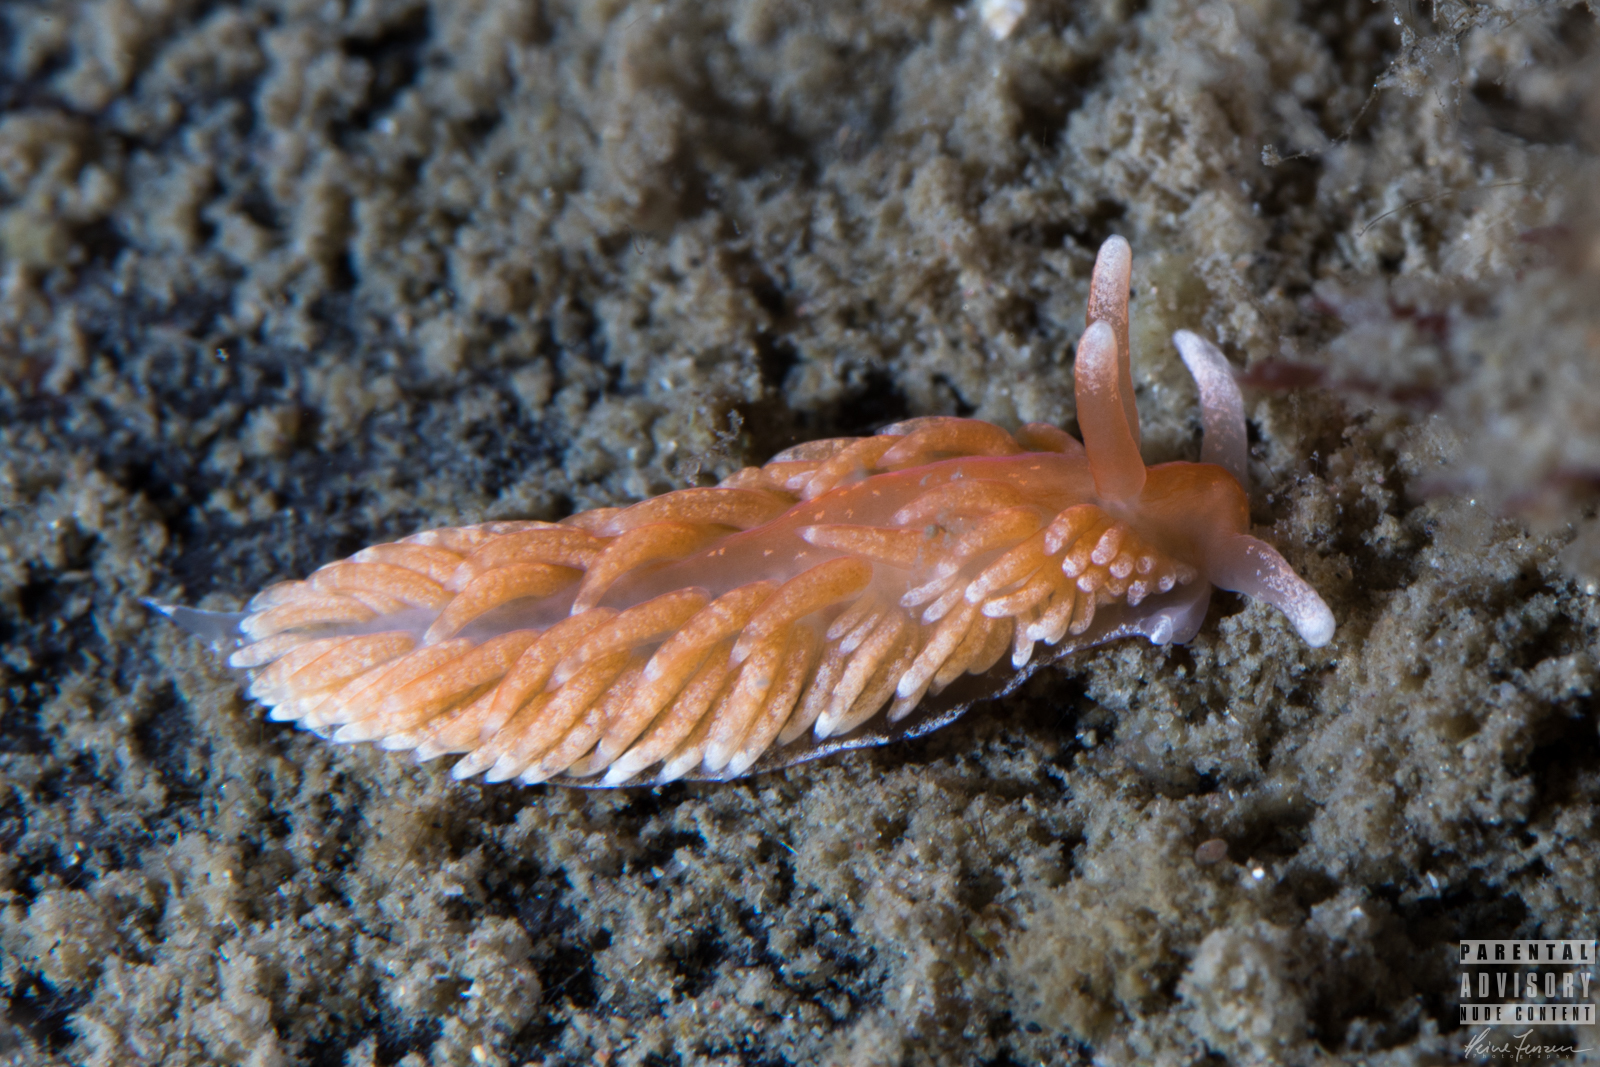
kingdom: Animalia
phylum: Mollusca
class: Gastropoda
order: Nudibranchia
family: Aeolidiidae
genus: Aeolidiella
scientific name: Aeolidiella glauca
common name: Orange-brown aeolid
